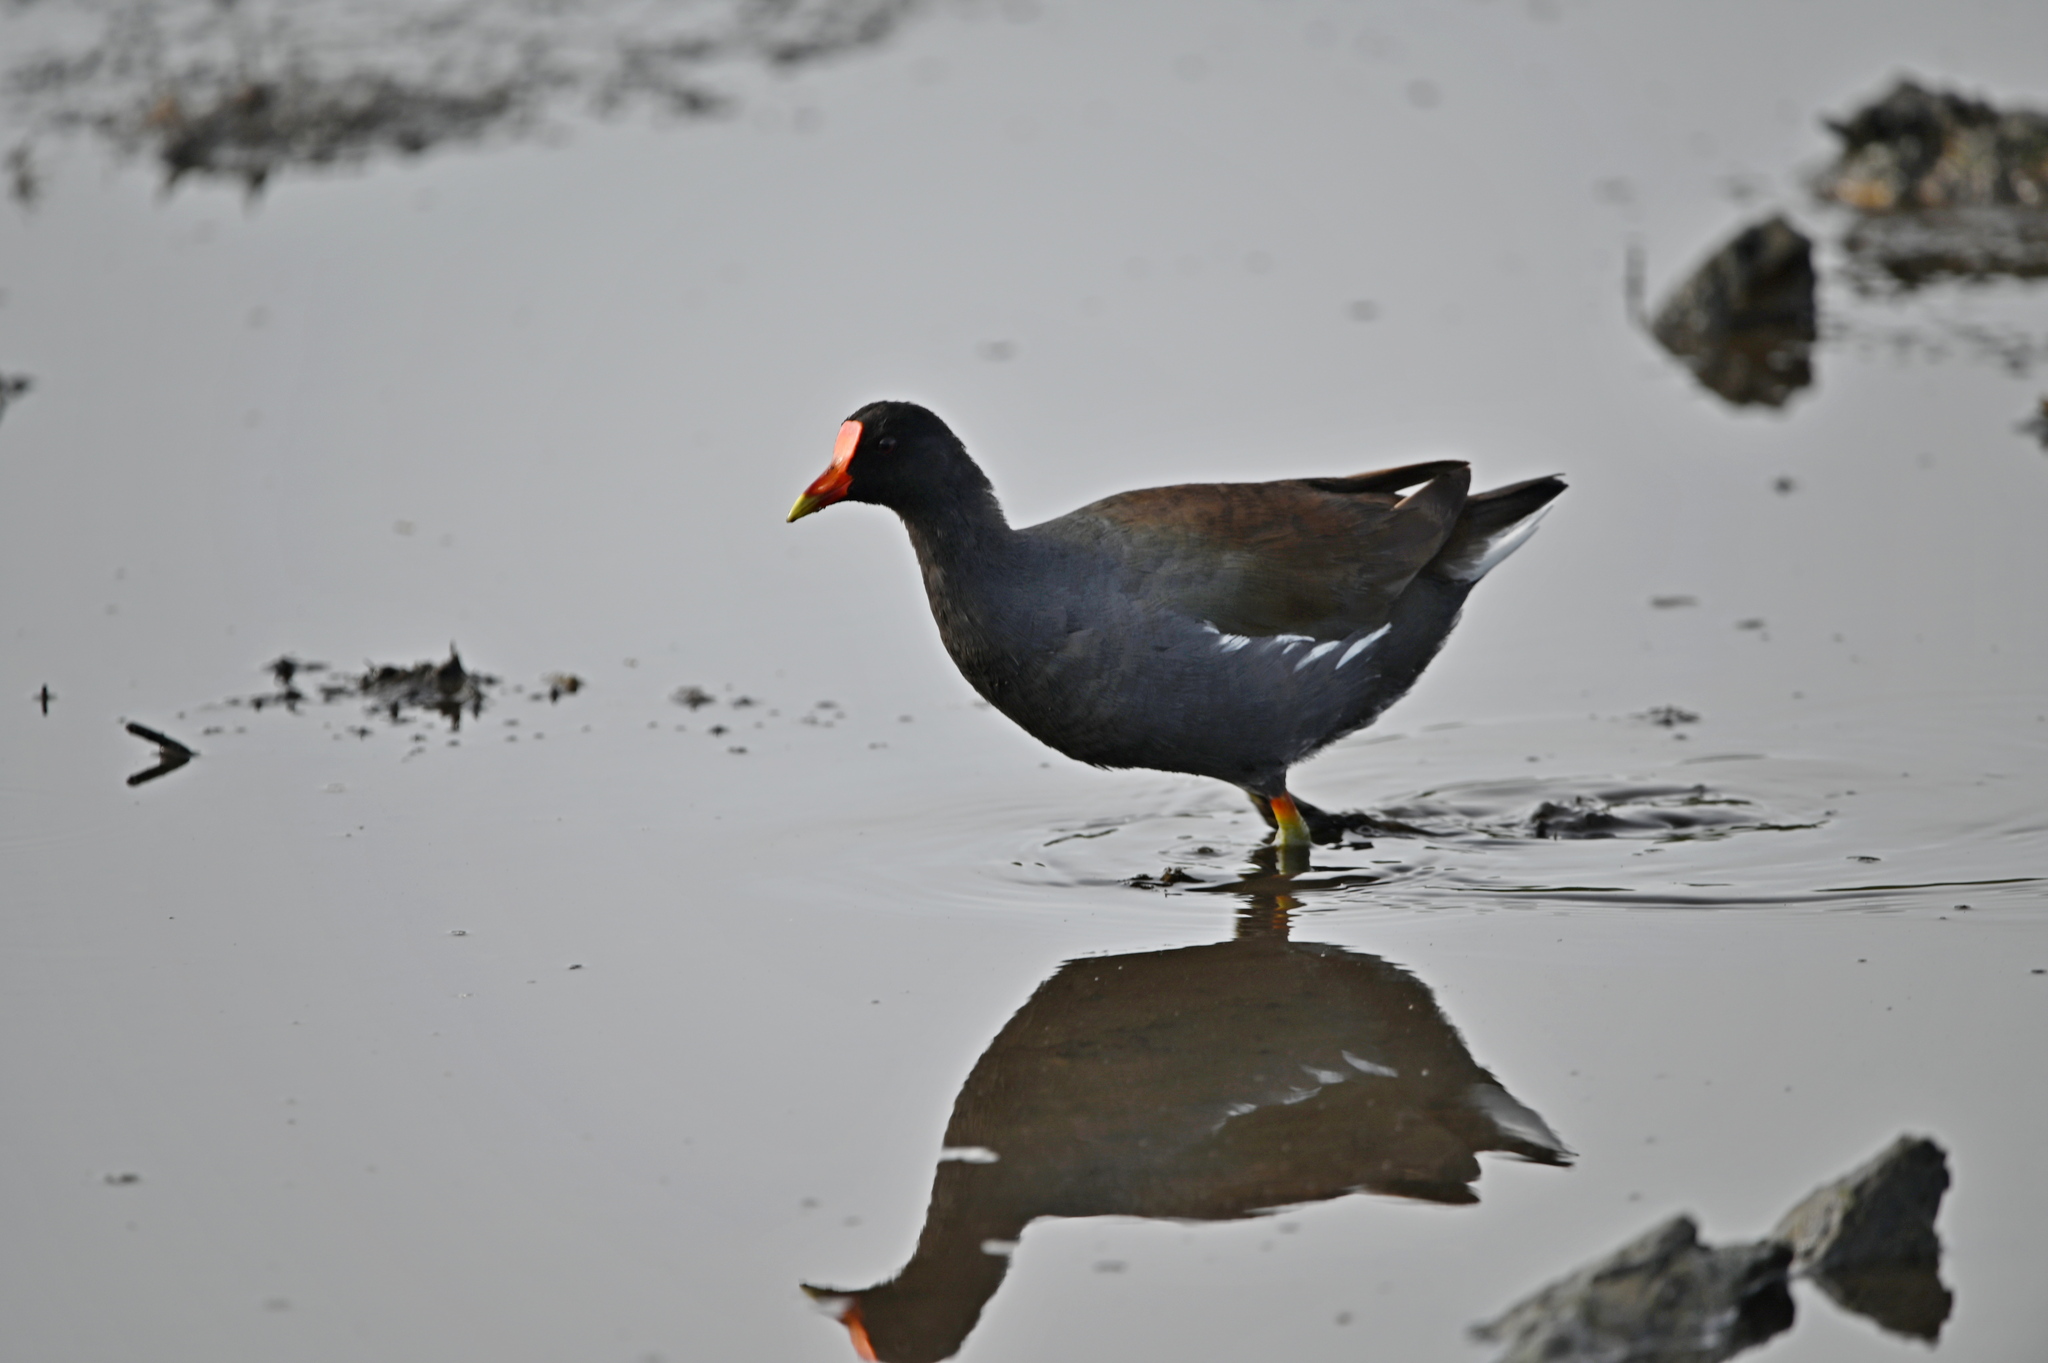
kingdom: Animalia
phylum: Chordata
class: Aves
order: Gruiformes
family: Rallidae
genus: Gallinula
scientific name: Gallinula chloropus
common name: Common moorhen
